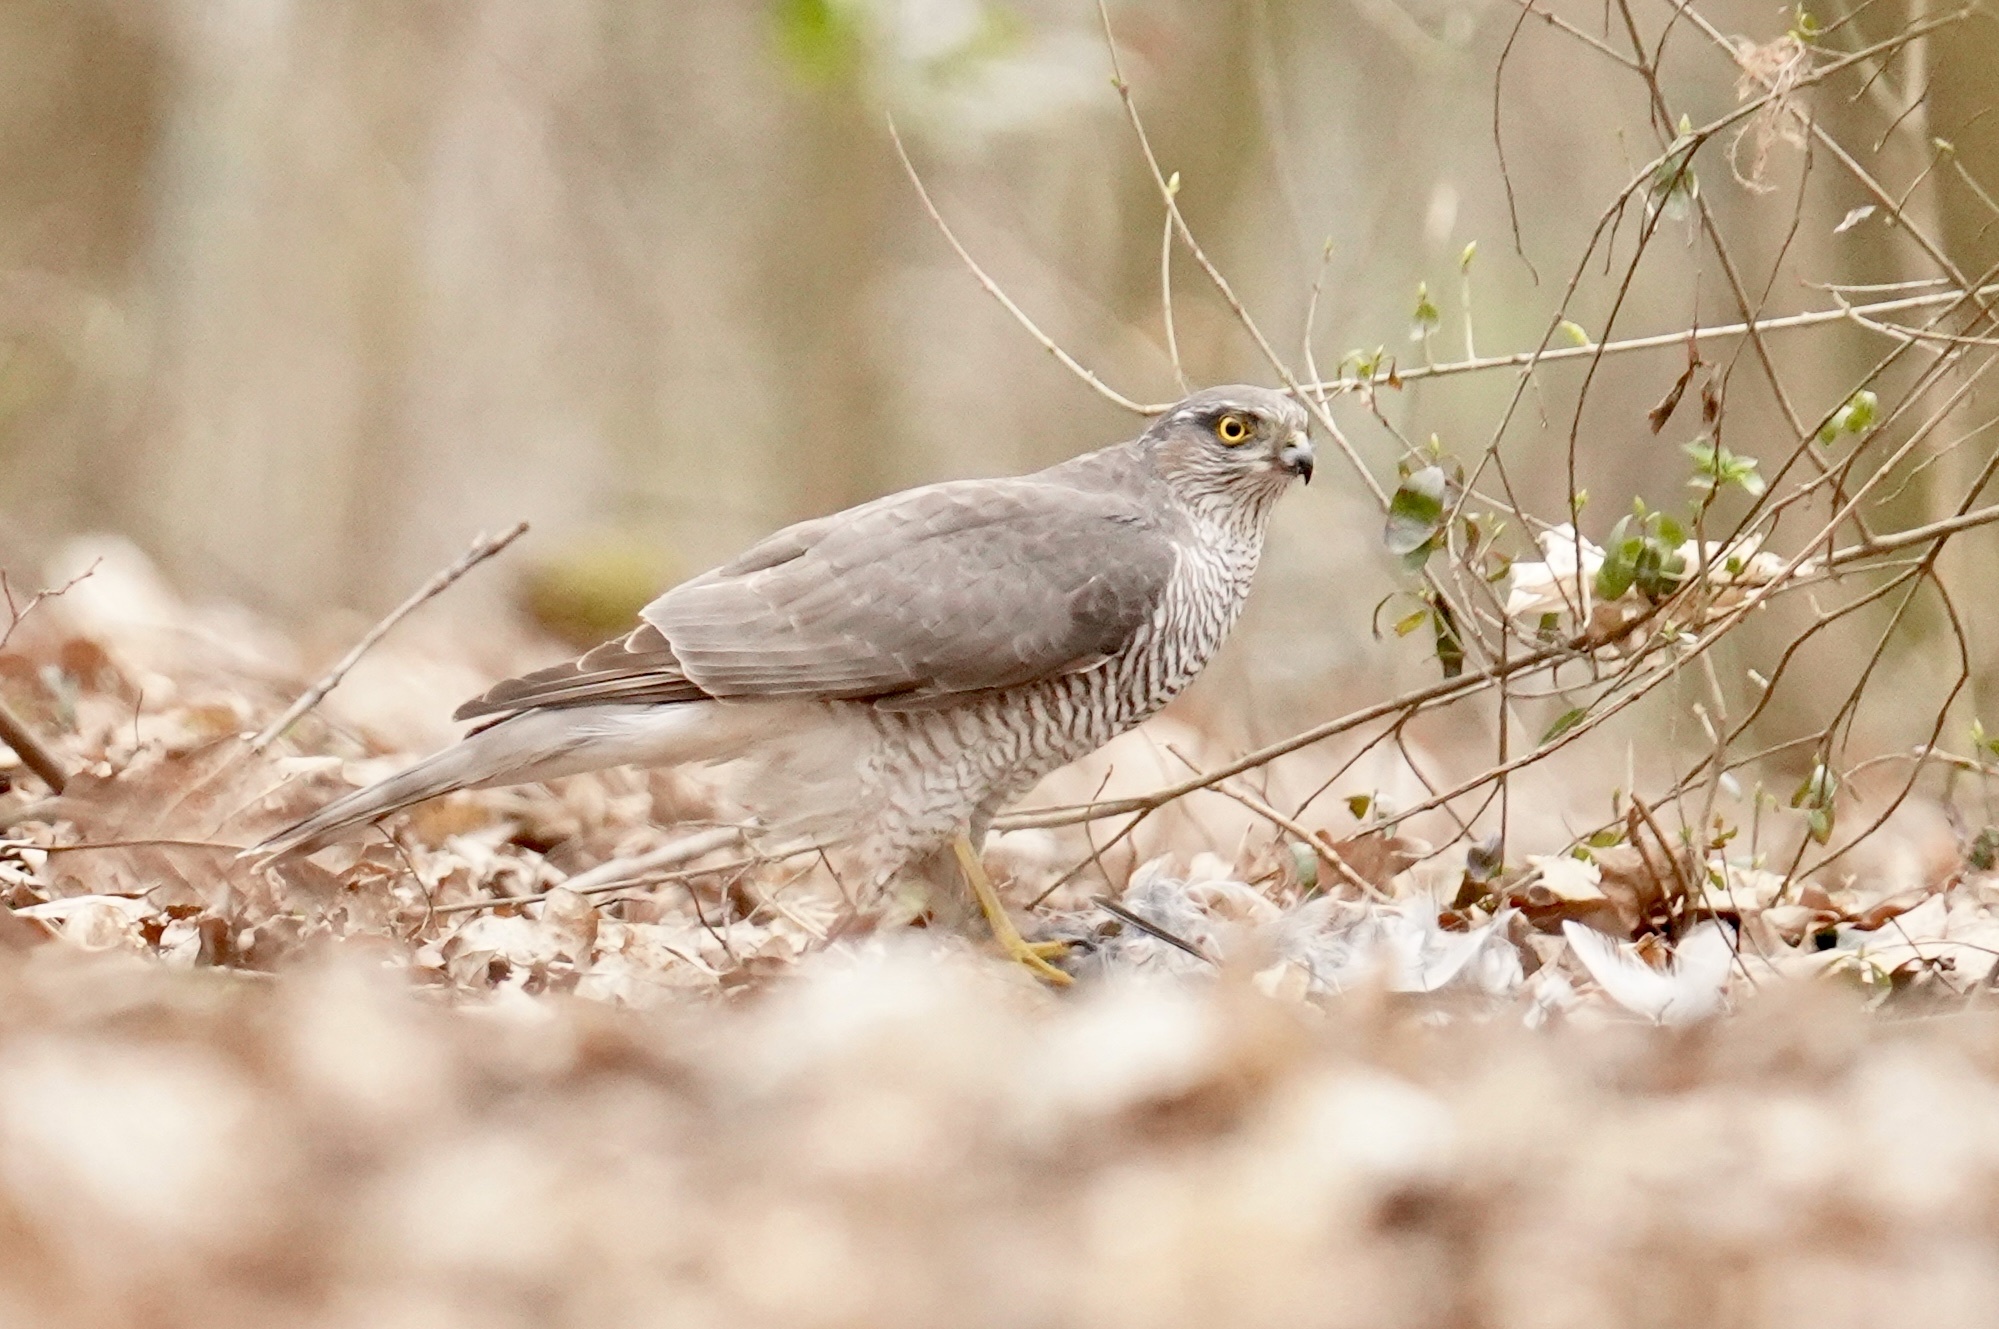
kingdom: Animalia
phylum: Chordata
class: Aves
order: Accipitriformes
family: Accipitridae
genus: Accipiter
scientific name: Accipiter nisus
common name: Eurasian sparrowhawk
